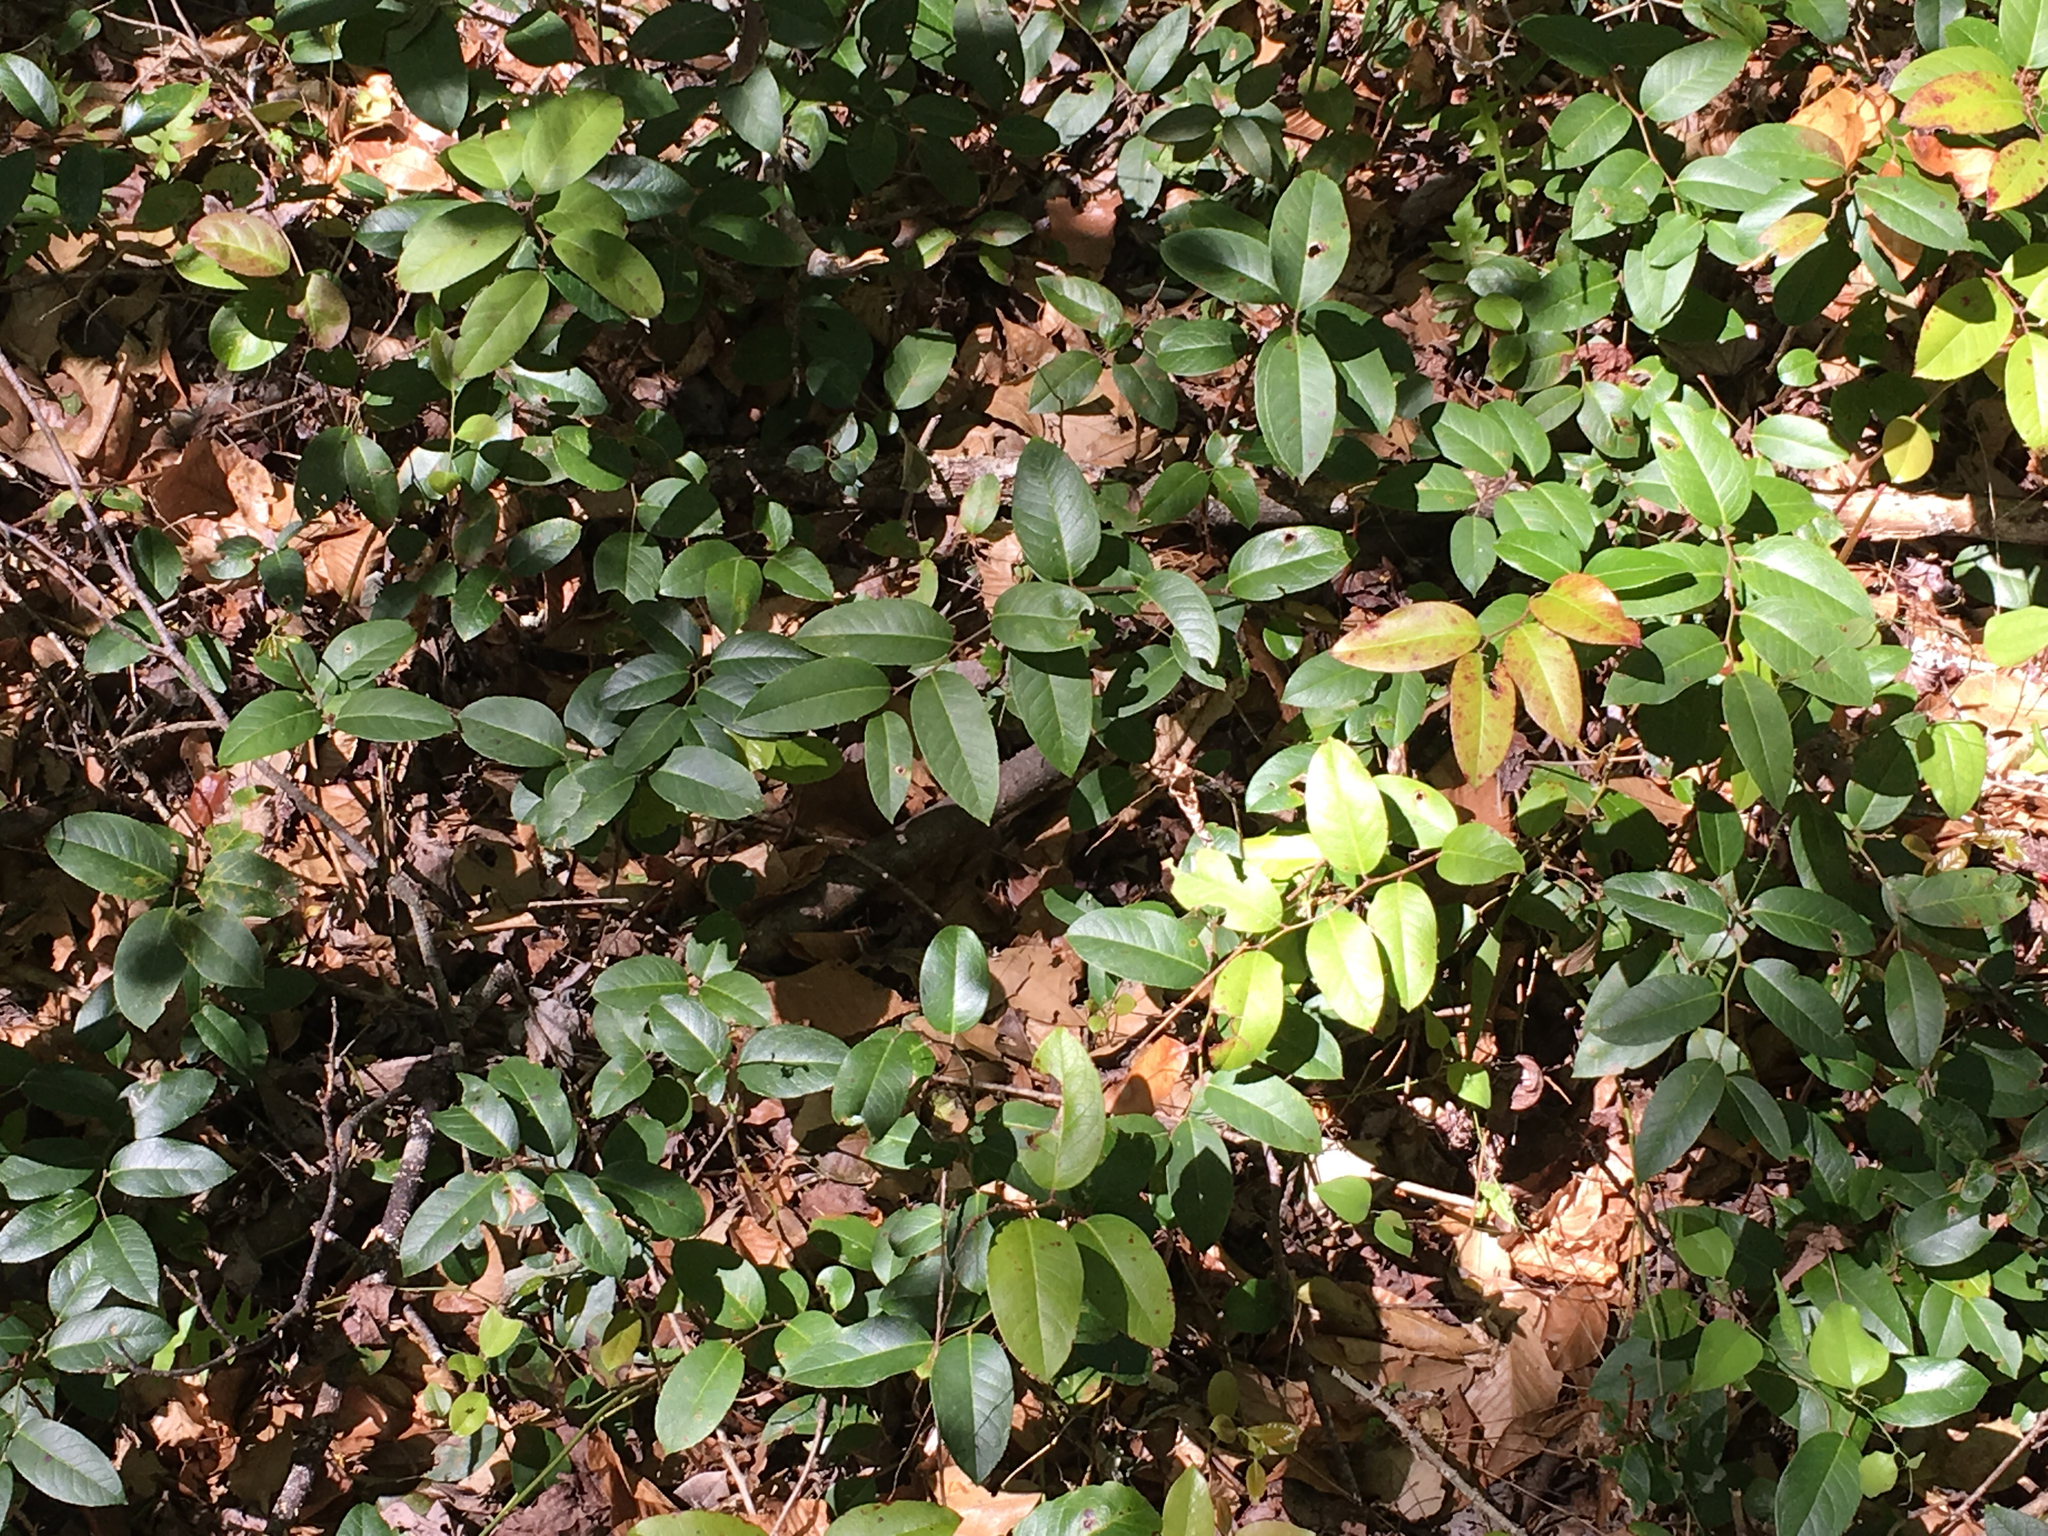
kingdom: Plantae
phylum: Tracheophyta
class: Magnoliopsida
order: Ericales
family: Ericaceae
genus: Leucothoe
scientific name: Leucothoe axillaris
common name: Leucothoe
